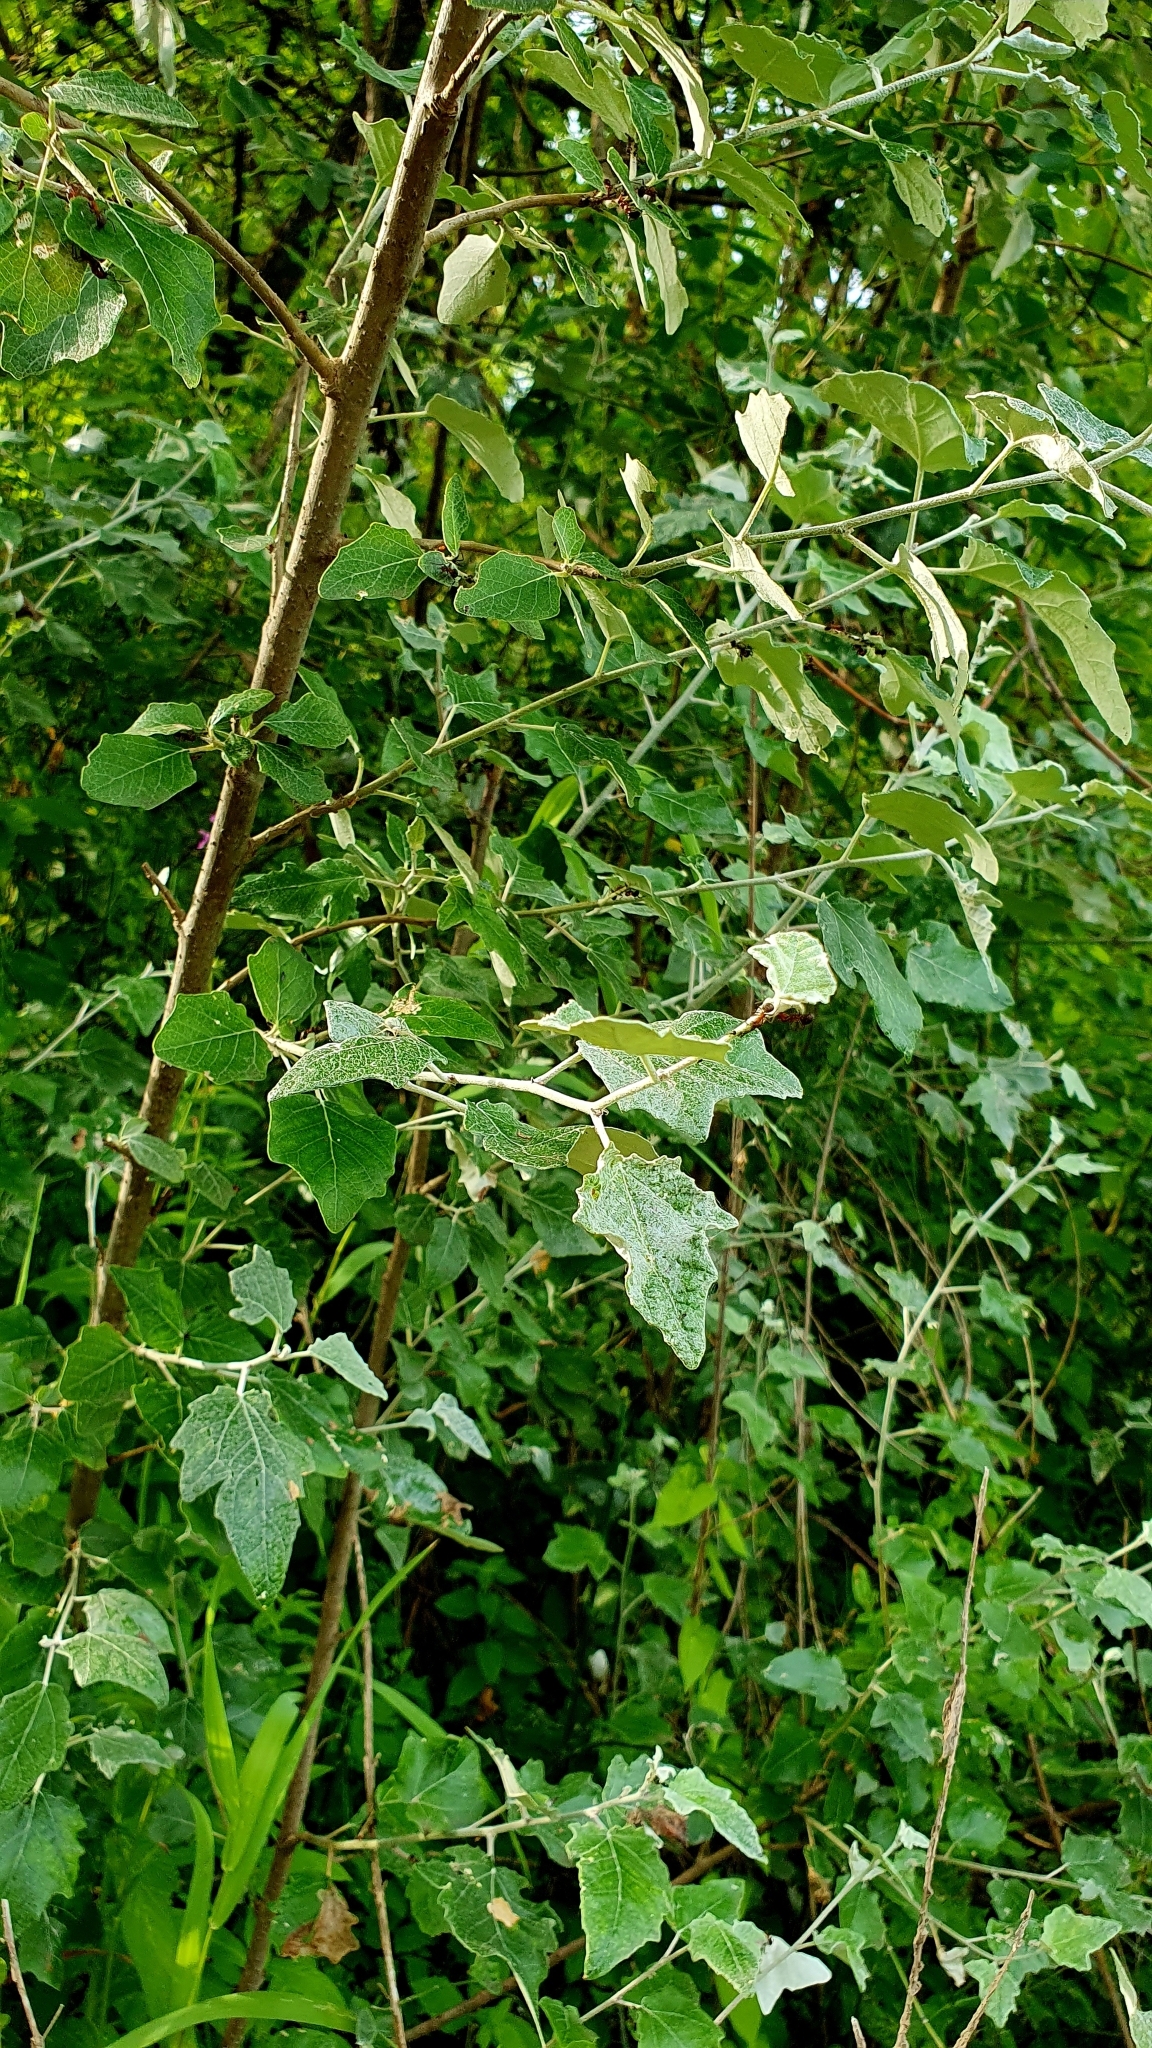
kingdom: Plantae
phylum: Tracheophyta
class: Magnoliopsida
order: Malpighiales
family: Salicaceae
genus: Populus
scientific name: Populus alba
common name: White poplar
